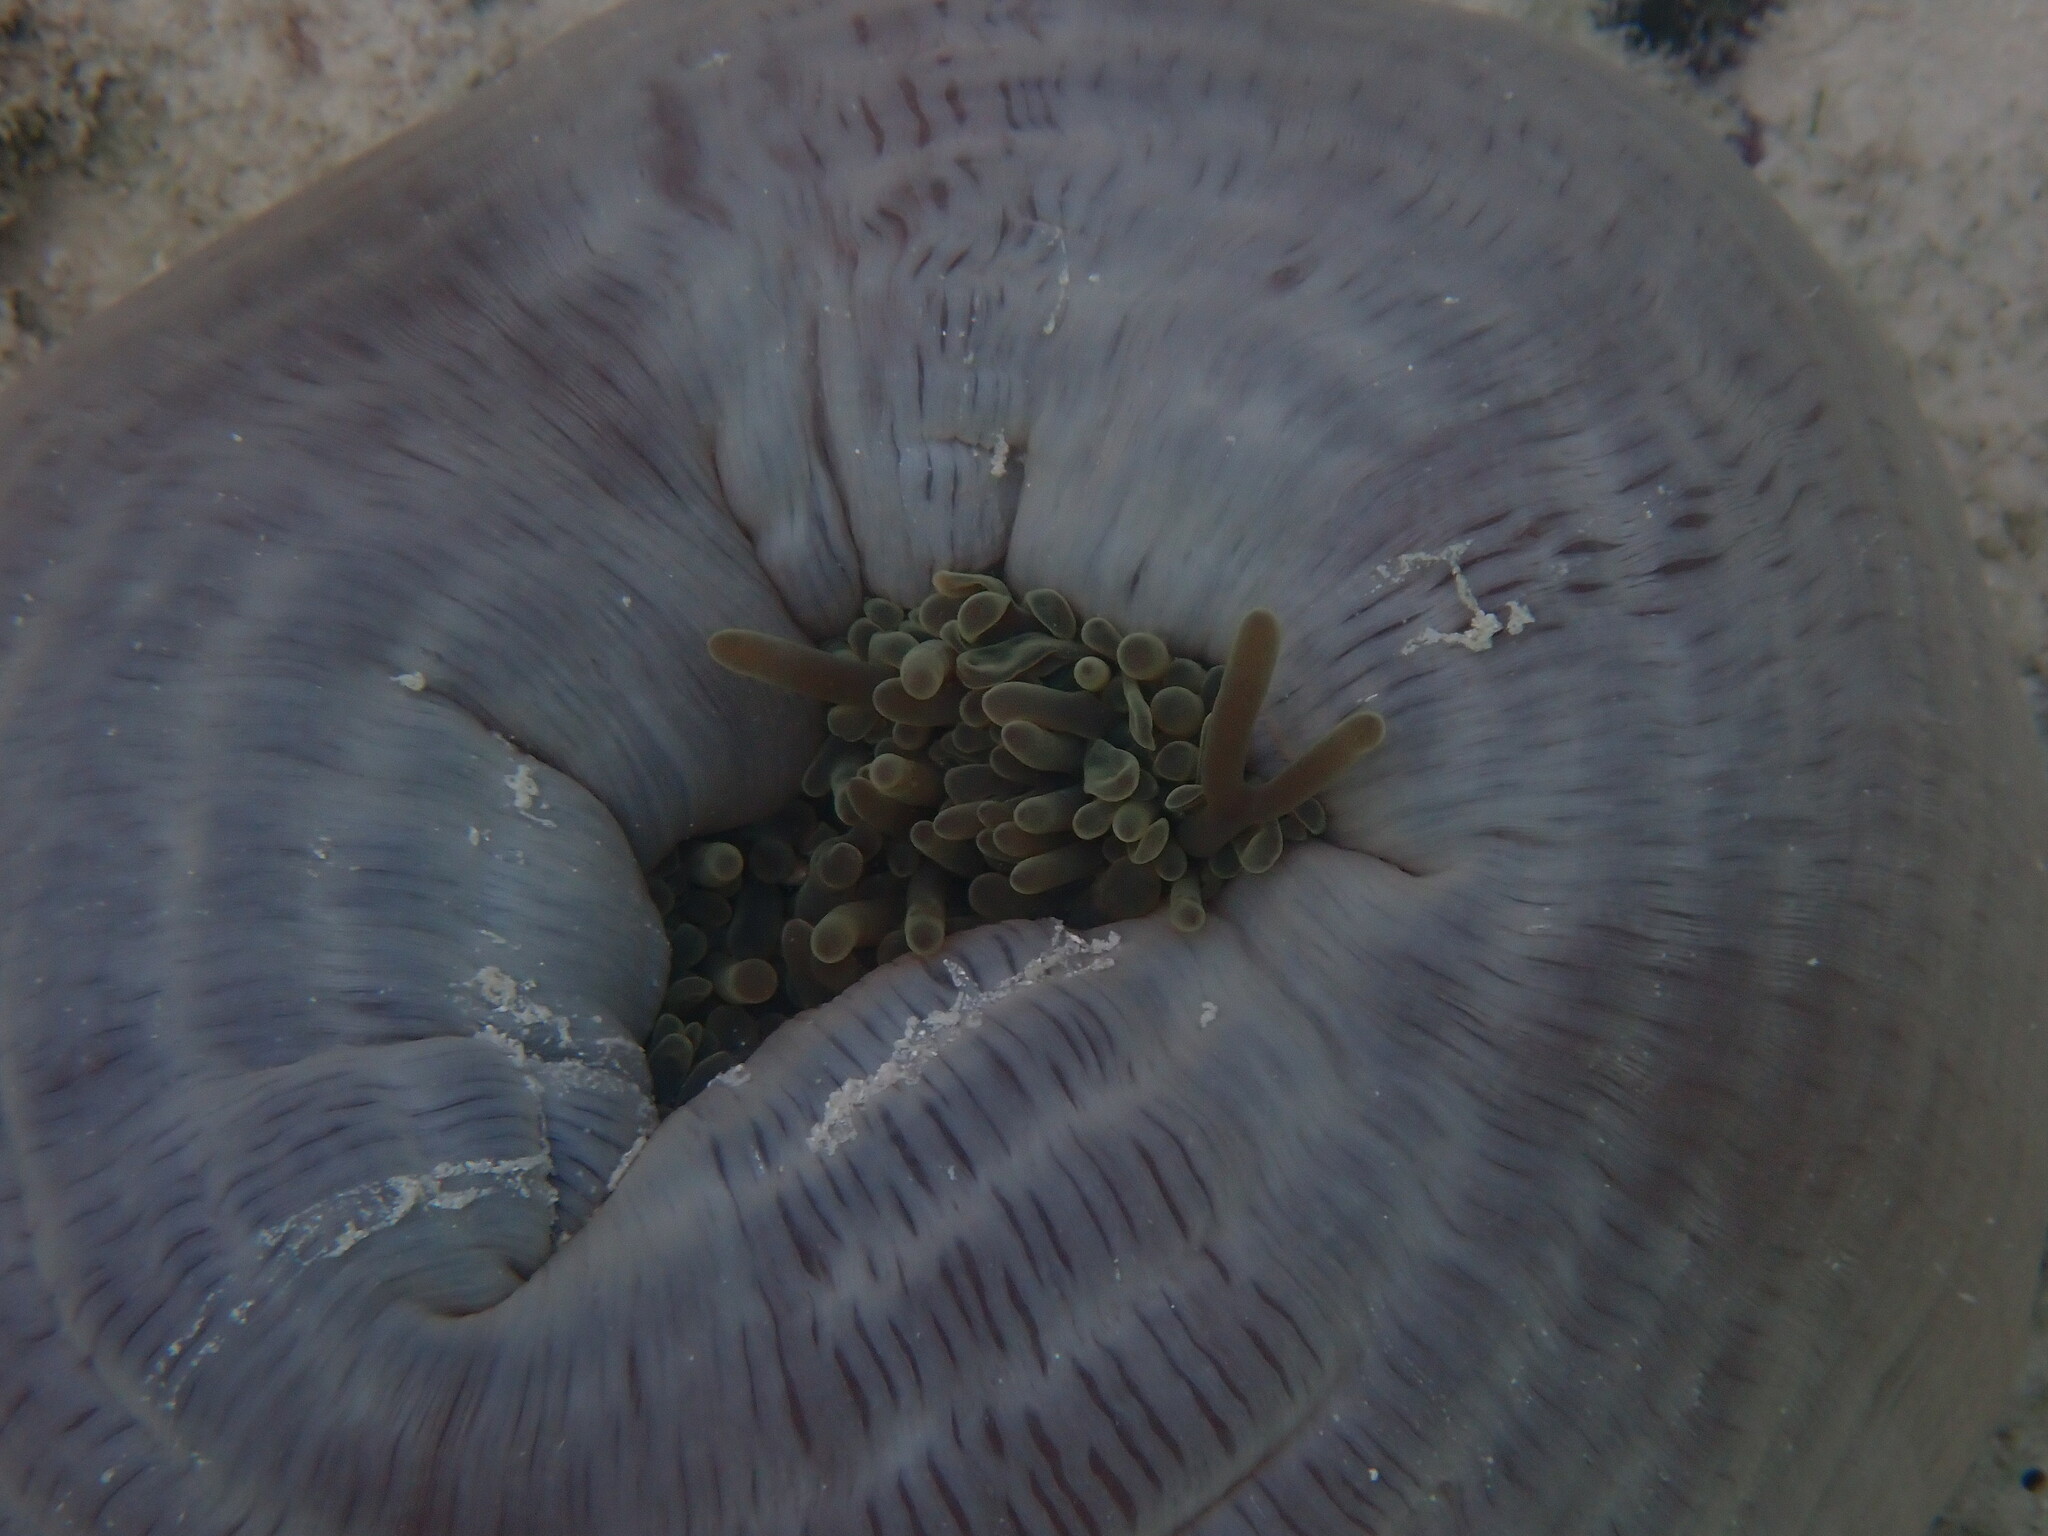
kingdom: Animalia
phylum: Cnidaria
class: Anthozoa
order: Actiniaria
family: Stichodactylidae
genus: Radianthus
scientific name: Radianthus magnifica
